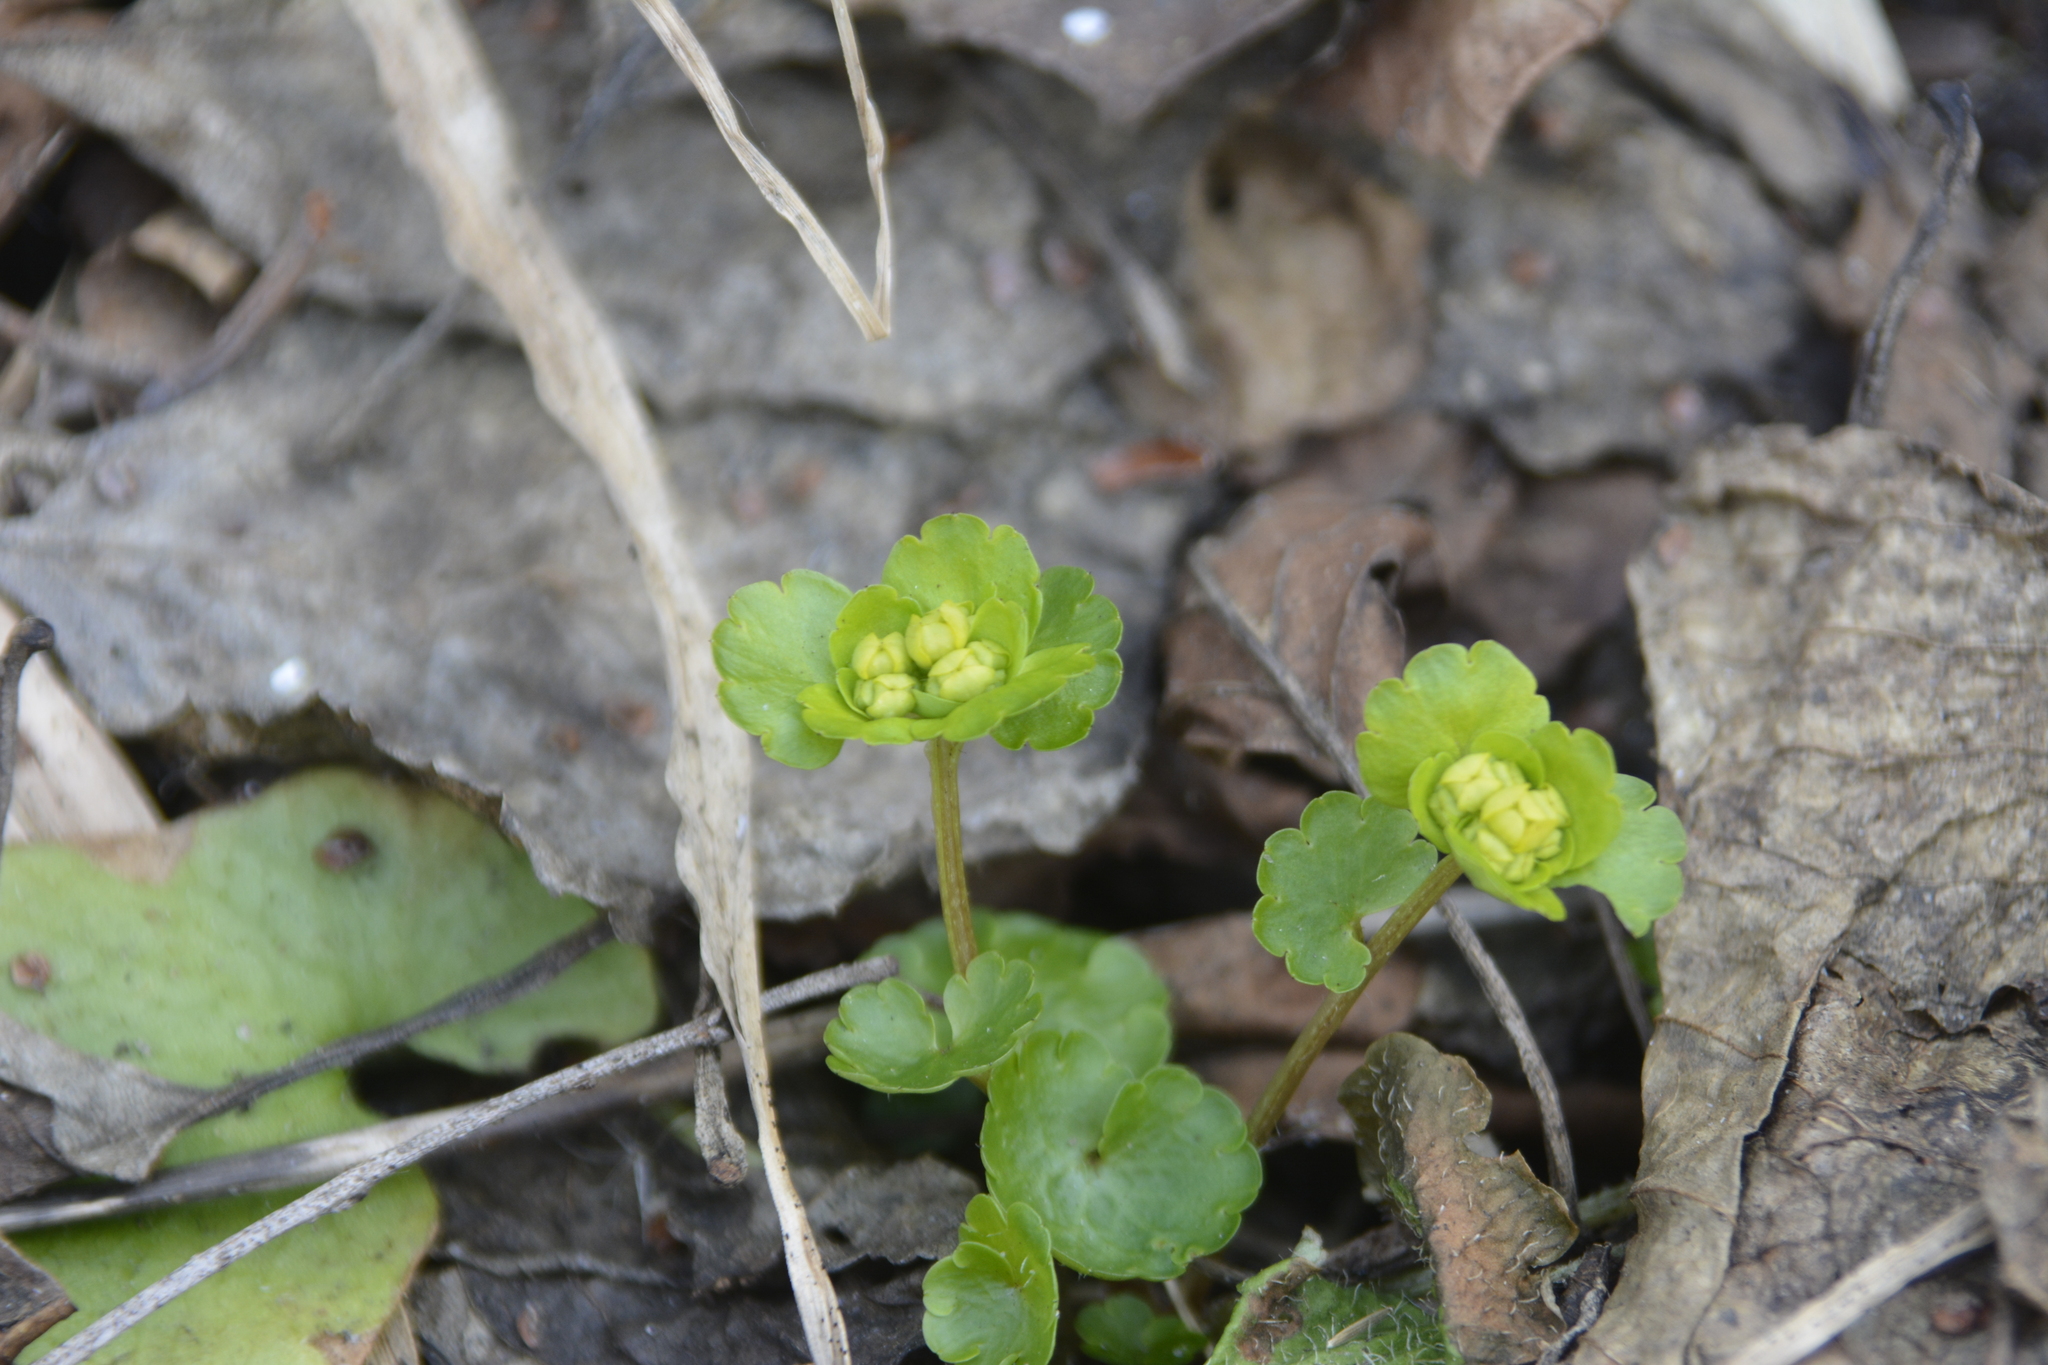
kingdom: Plantae
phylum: Tracheophyta
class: Magnoliopsida
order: Saxifragales
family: Saxifragaceae
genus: Chrysosplenium
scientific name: Chrysosplenium alternifolium
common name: Alternate-leaved golden-saxifrage
